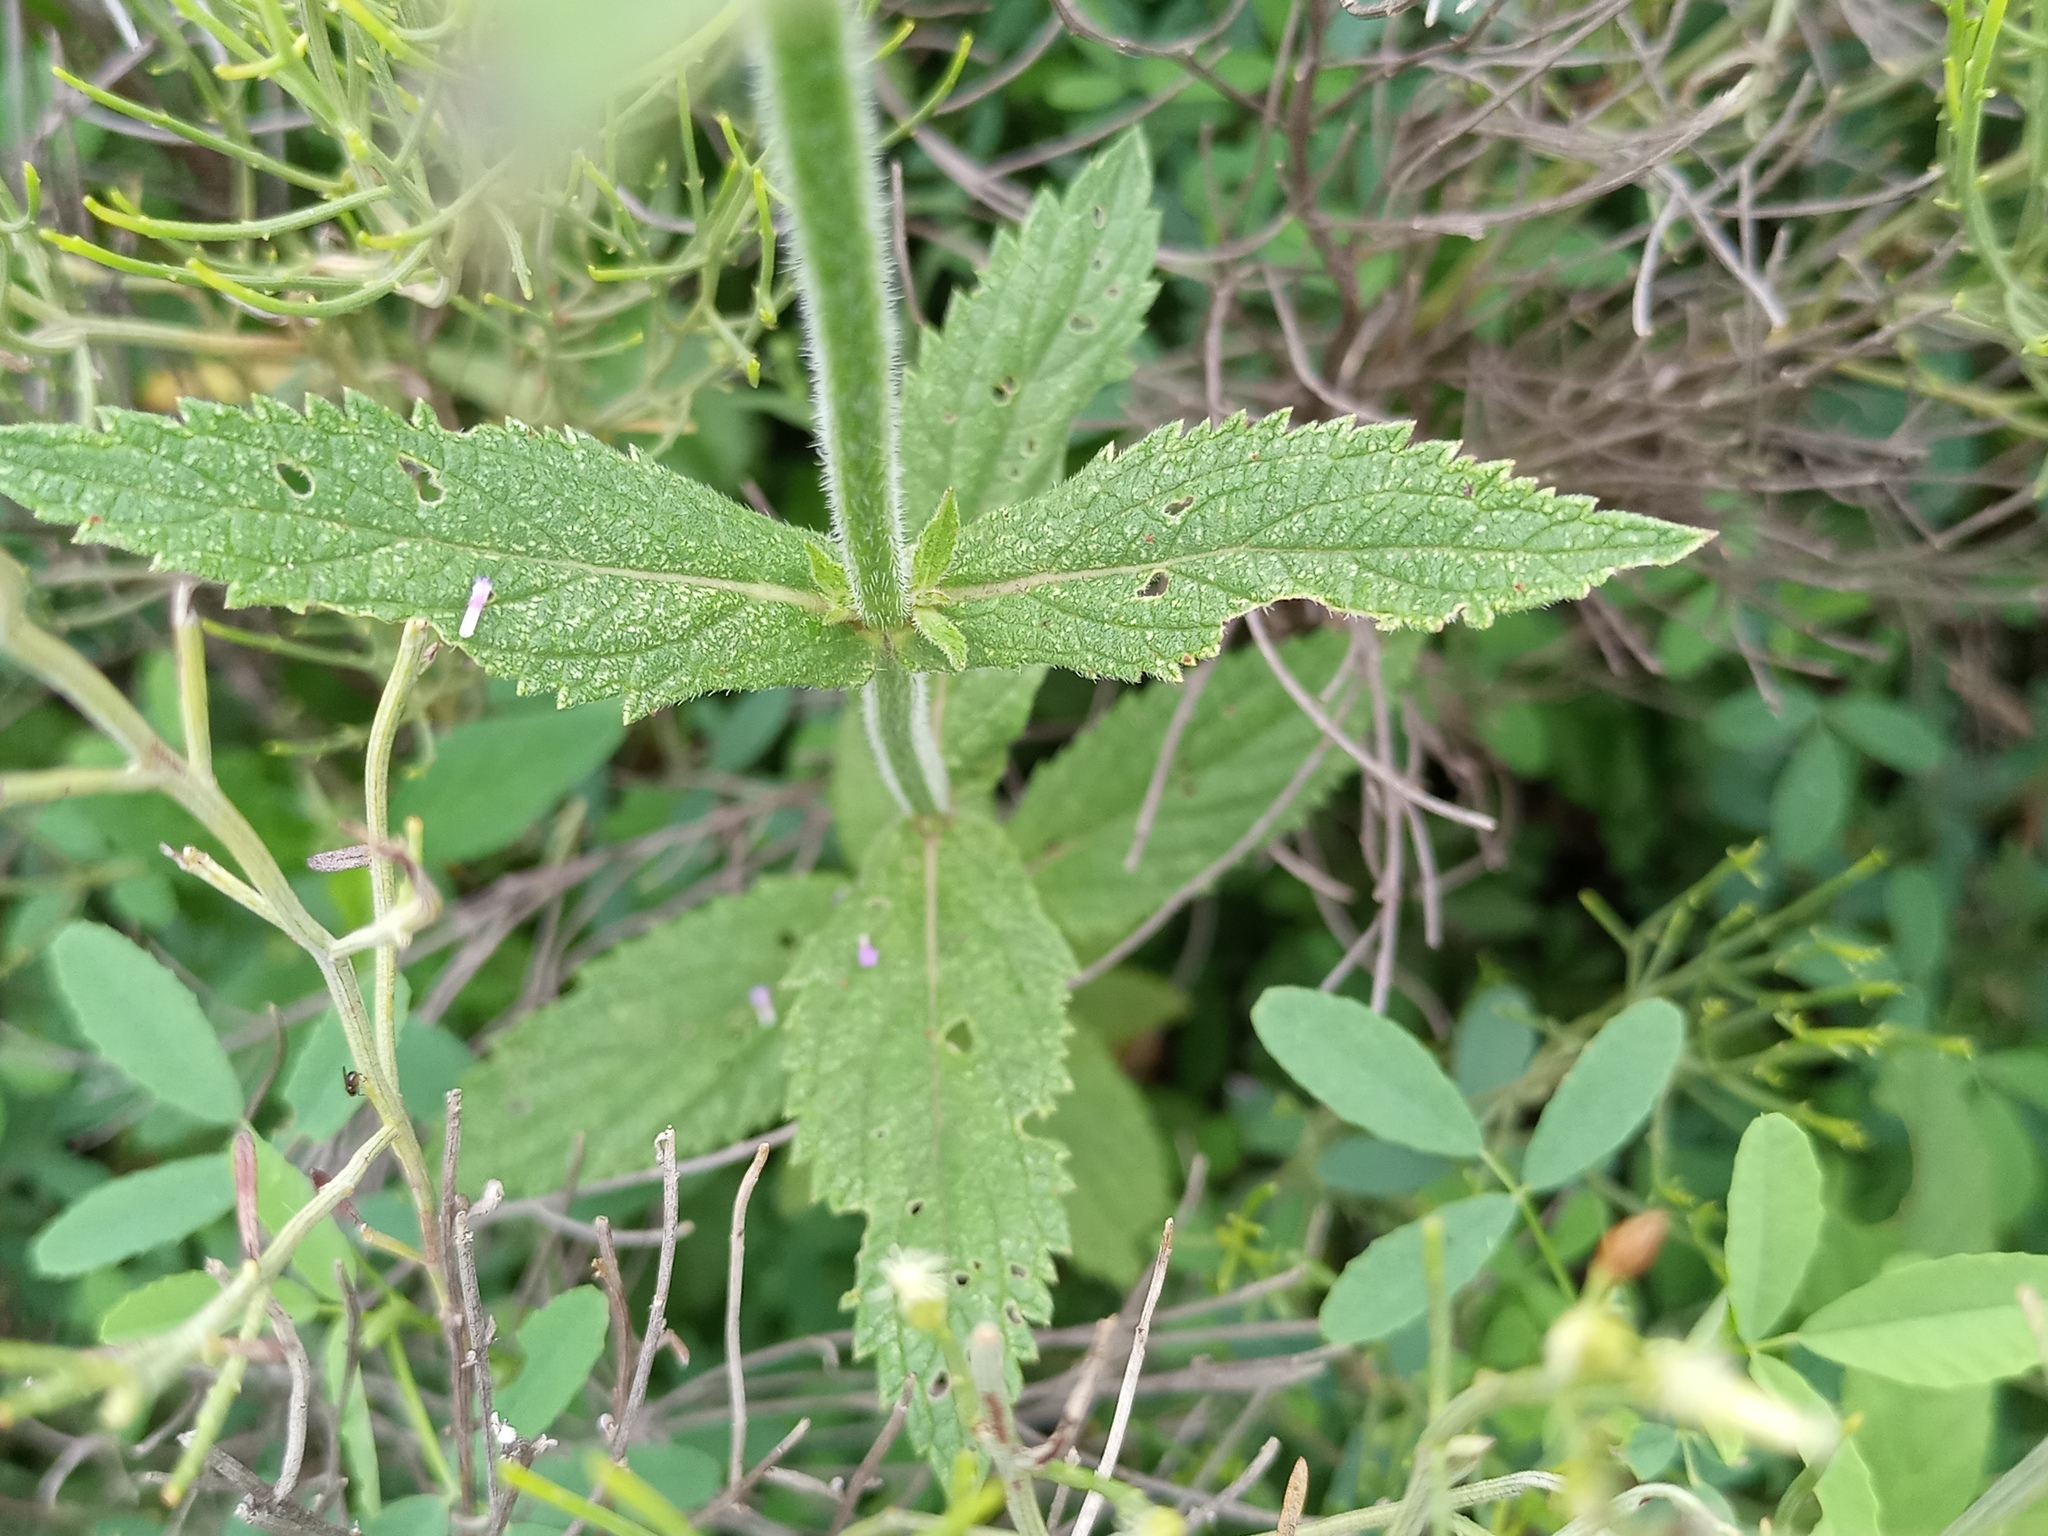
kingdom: Plantae
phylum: Tracheophyta
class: Magnoliopsida
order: Lamiales
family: Verbenaceae
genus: Verbena
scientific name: Verbena bonariensis
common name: Purpletop vervain
